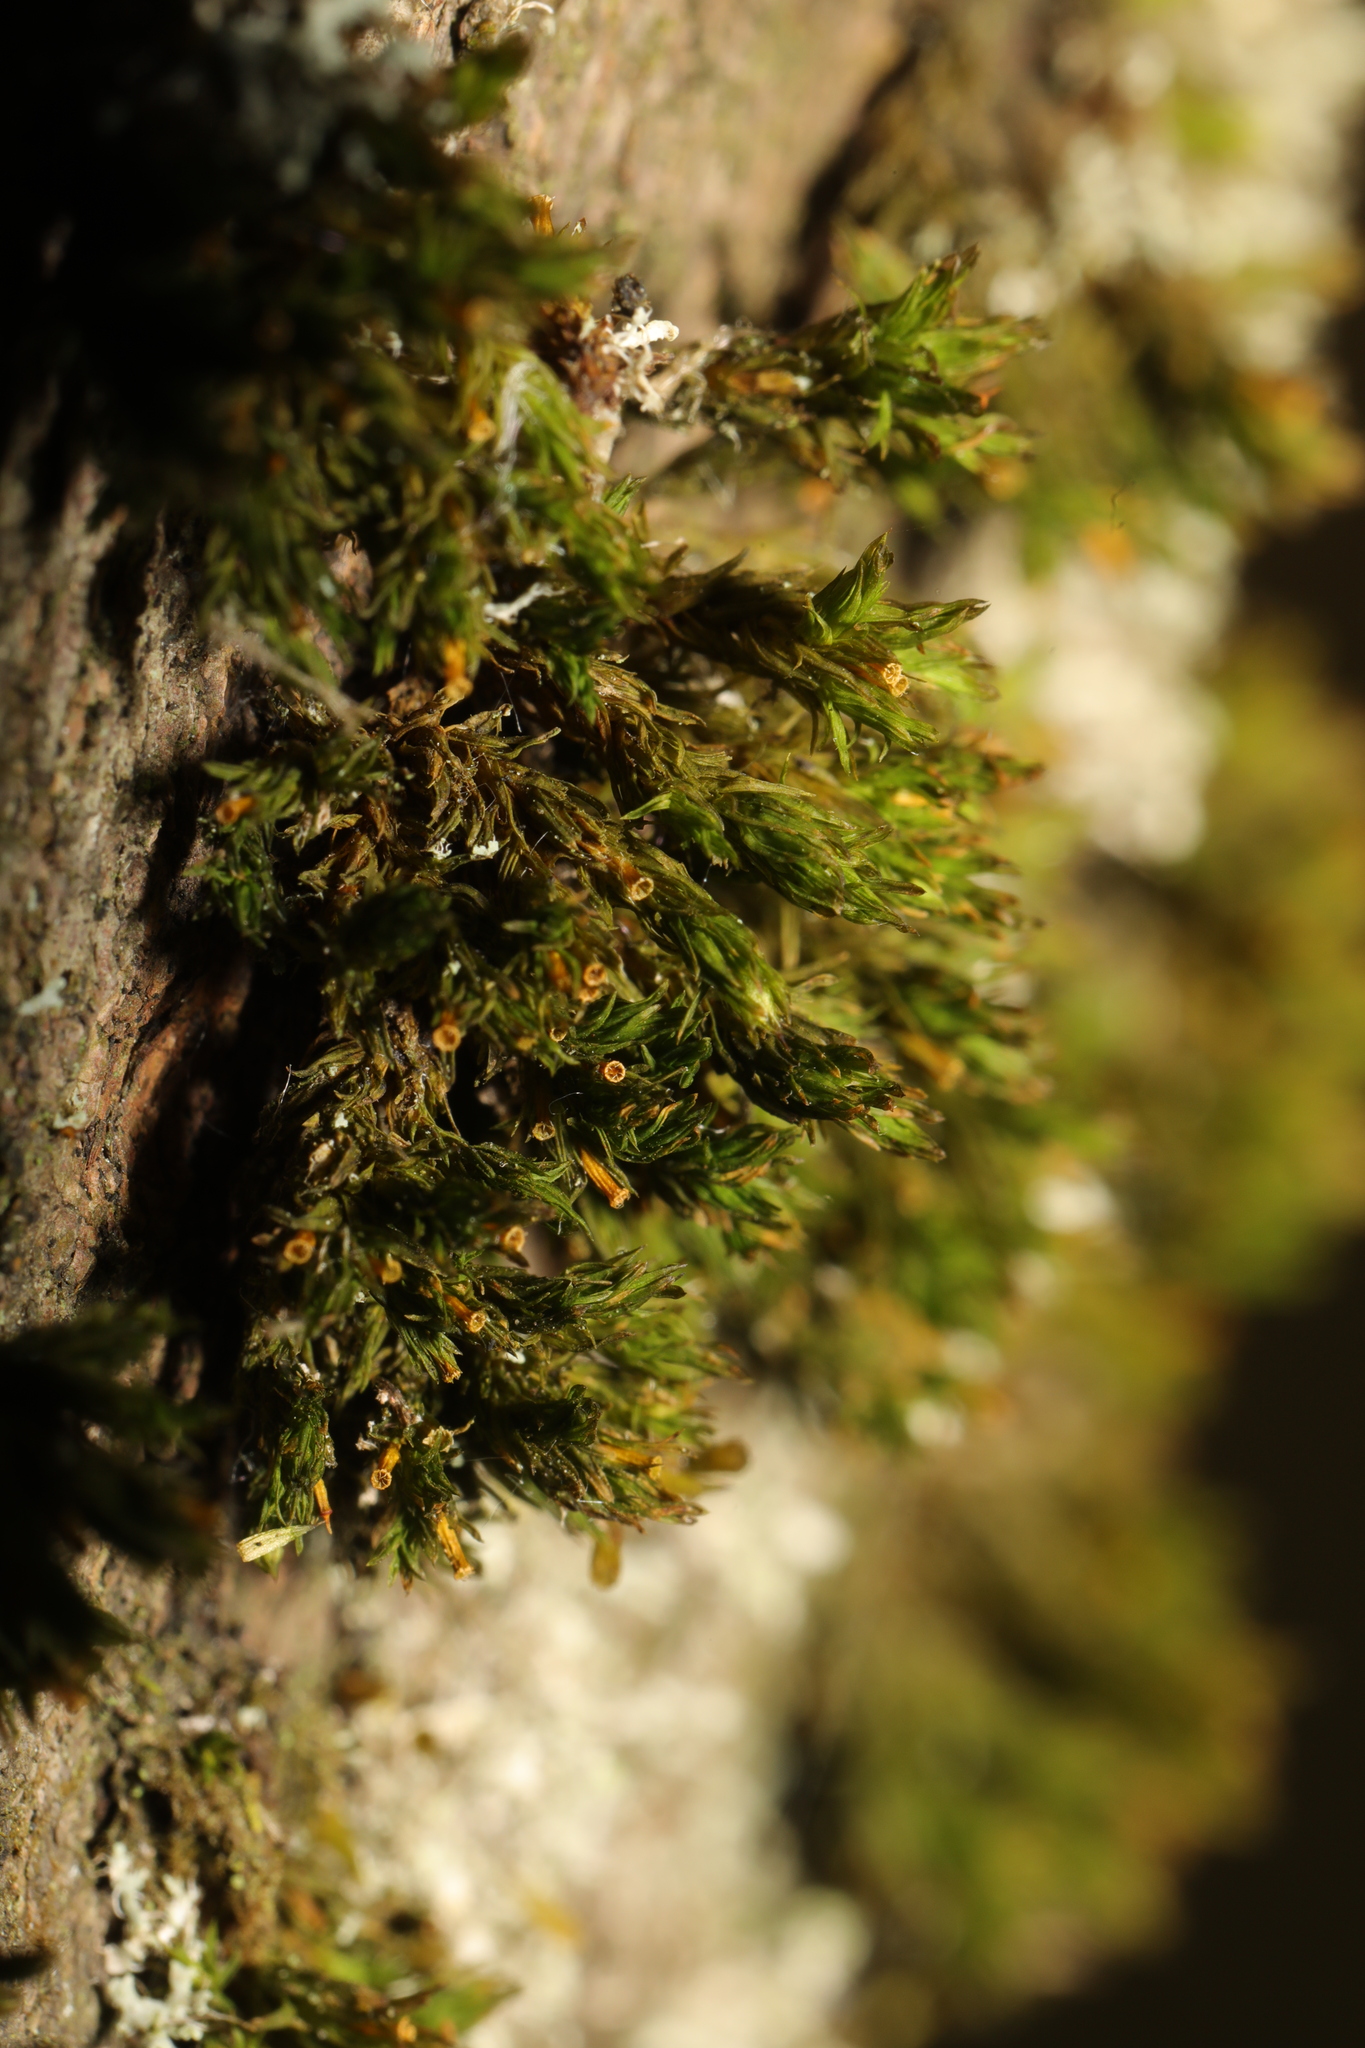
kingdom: Plantae
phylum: Bryophyta
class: Bryopsida
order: Orthotrichales
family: Orthotrichaceae
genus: Lewinskya
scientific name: Lewinskya affinis
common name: Wood bristle-moss
